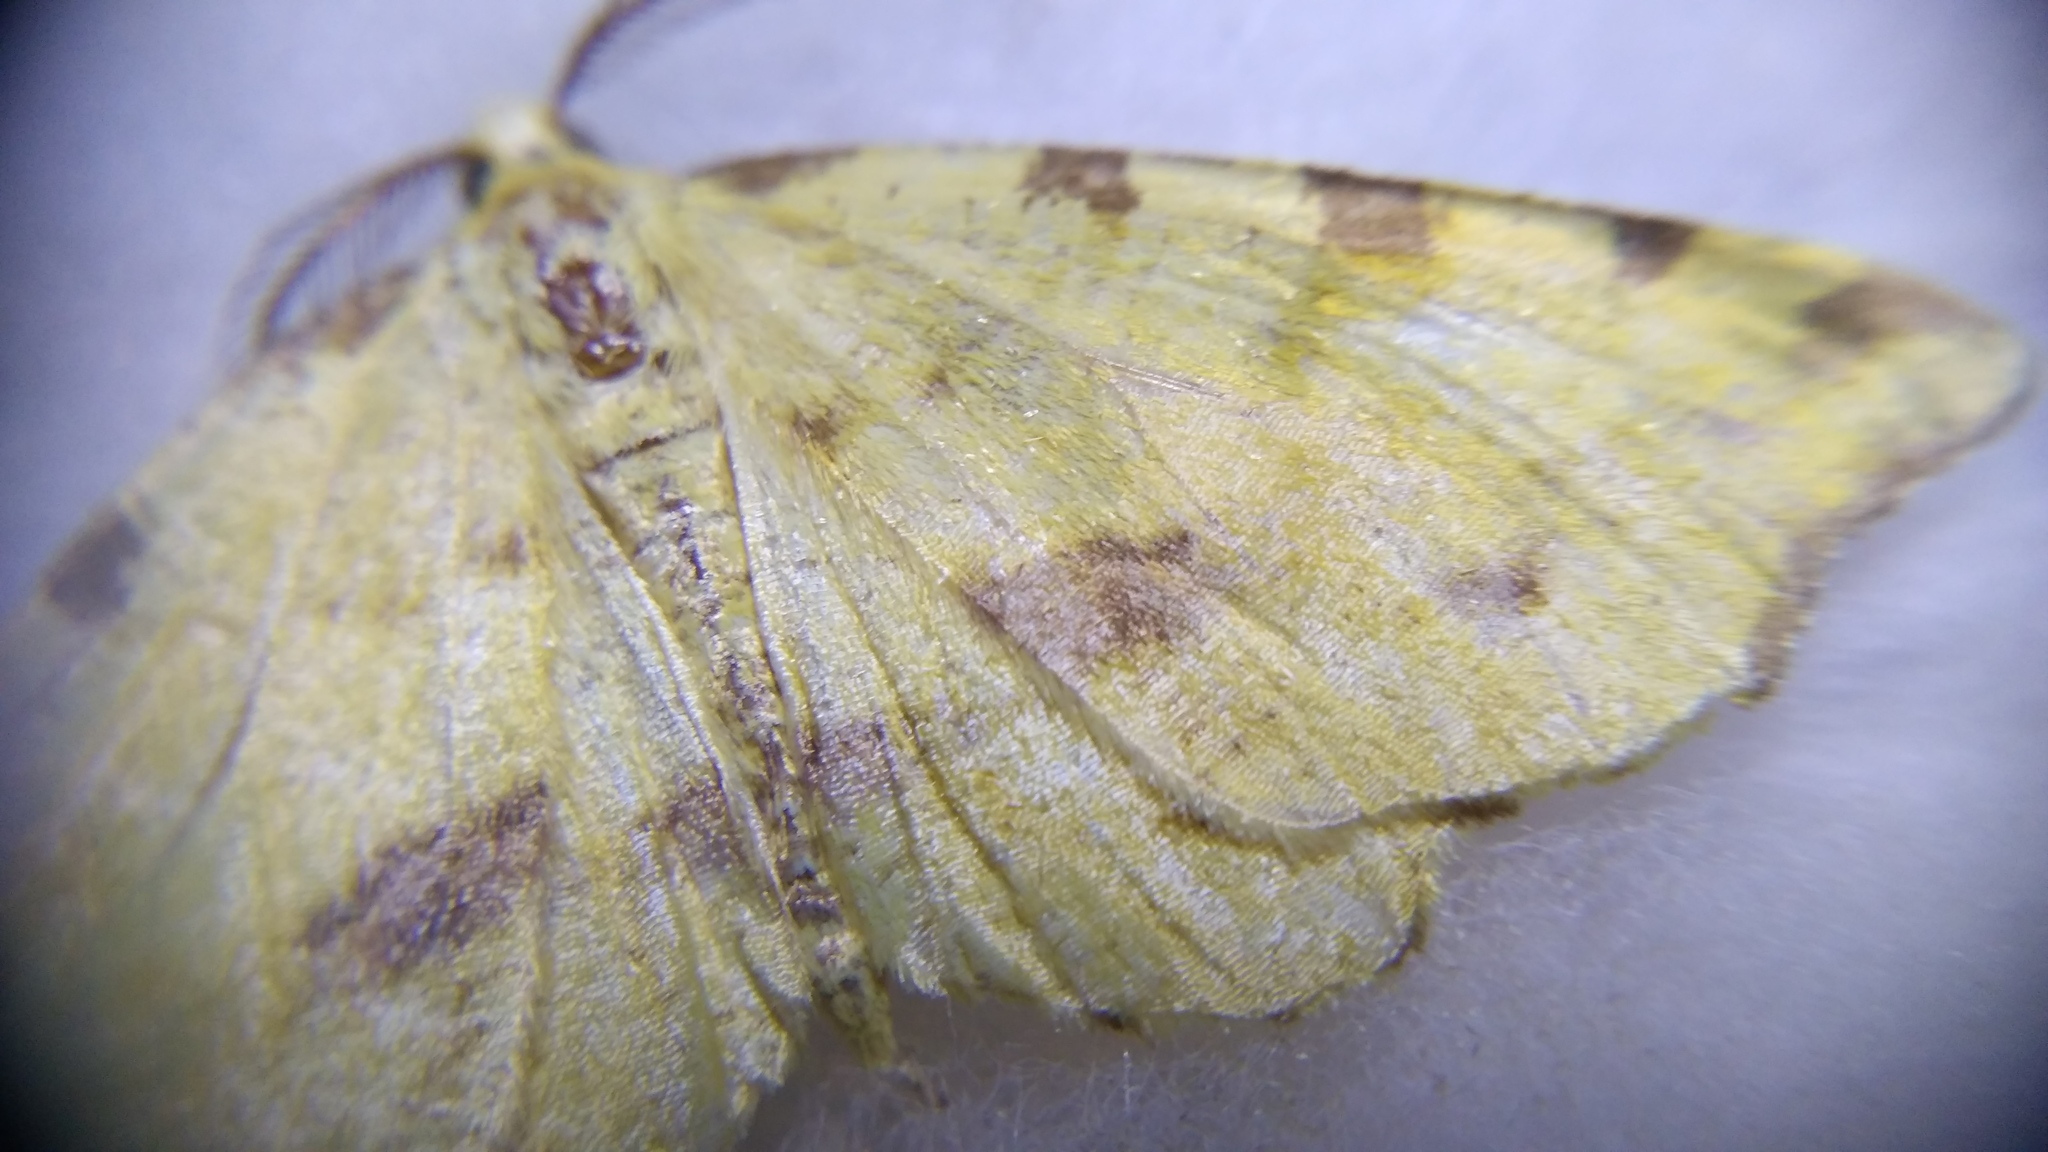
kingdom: Animalia
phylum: Arthropoda
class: Insecta
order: Lepidoptera
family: Geometridae
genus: Therapis
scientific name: Therapis flavicaria
